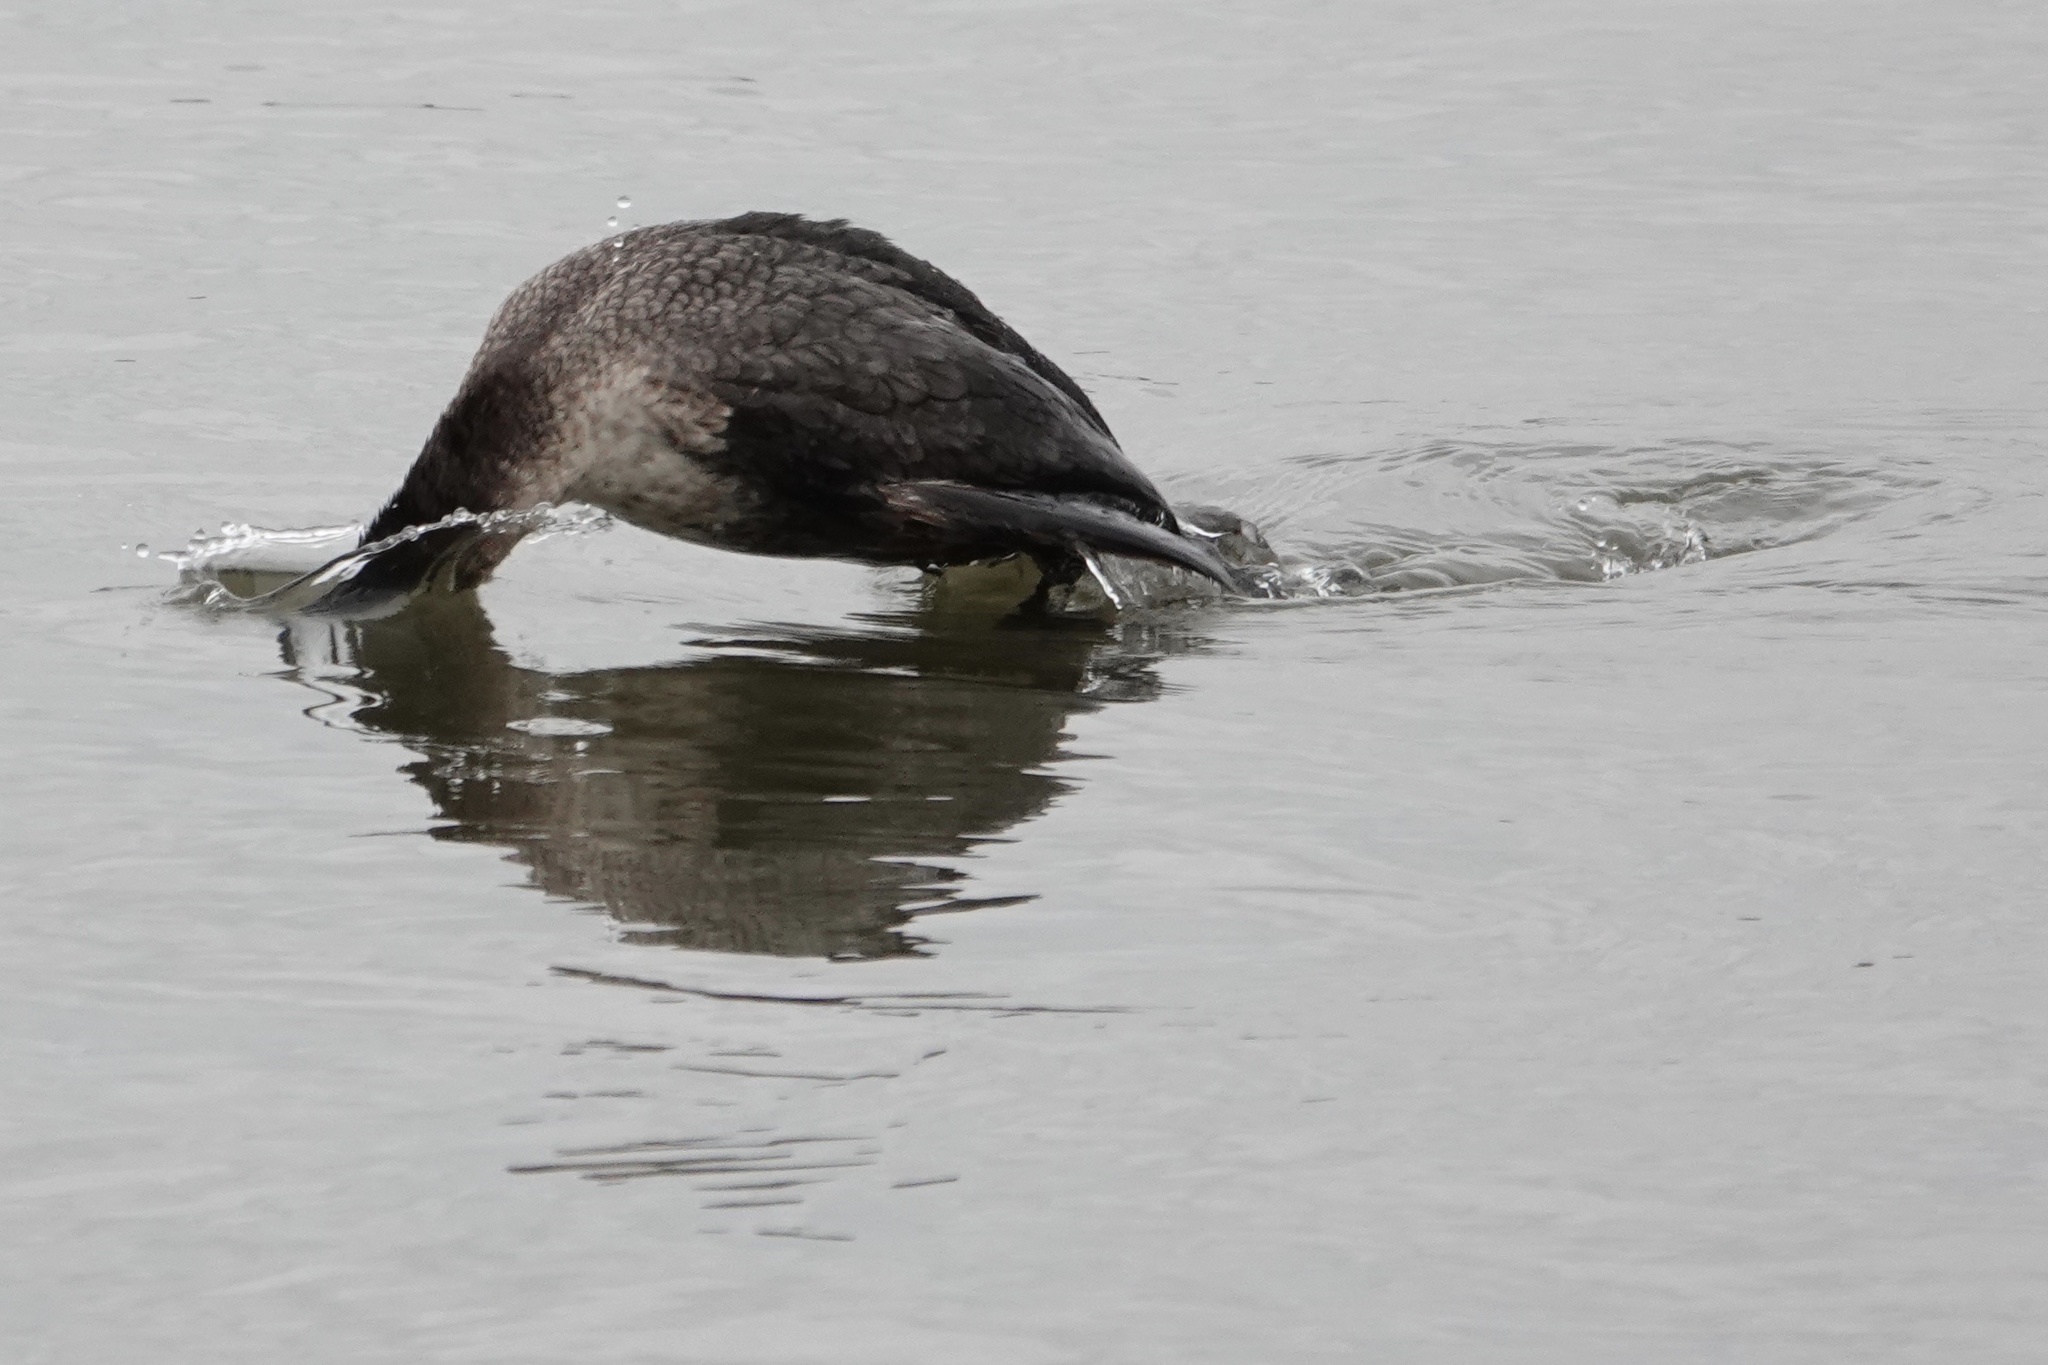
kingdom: Animalia
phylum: Chordata
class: Aves
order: Suliformes
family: Phalacrocoracidae
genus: Phalacrocorax
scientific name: Phalacrocorax auritus
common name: Double-crested cormorant
